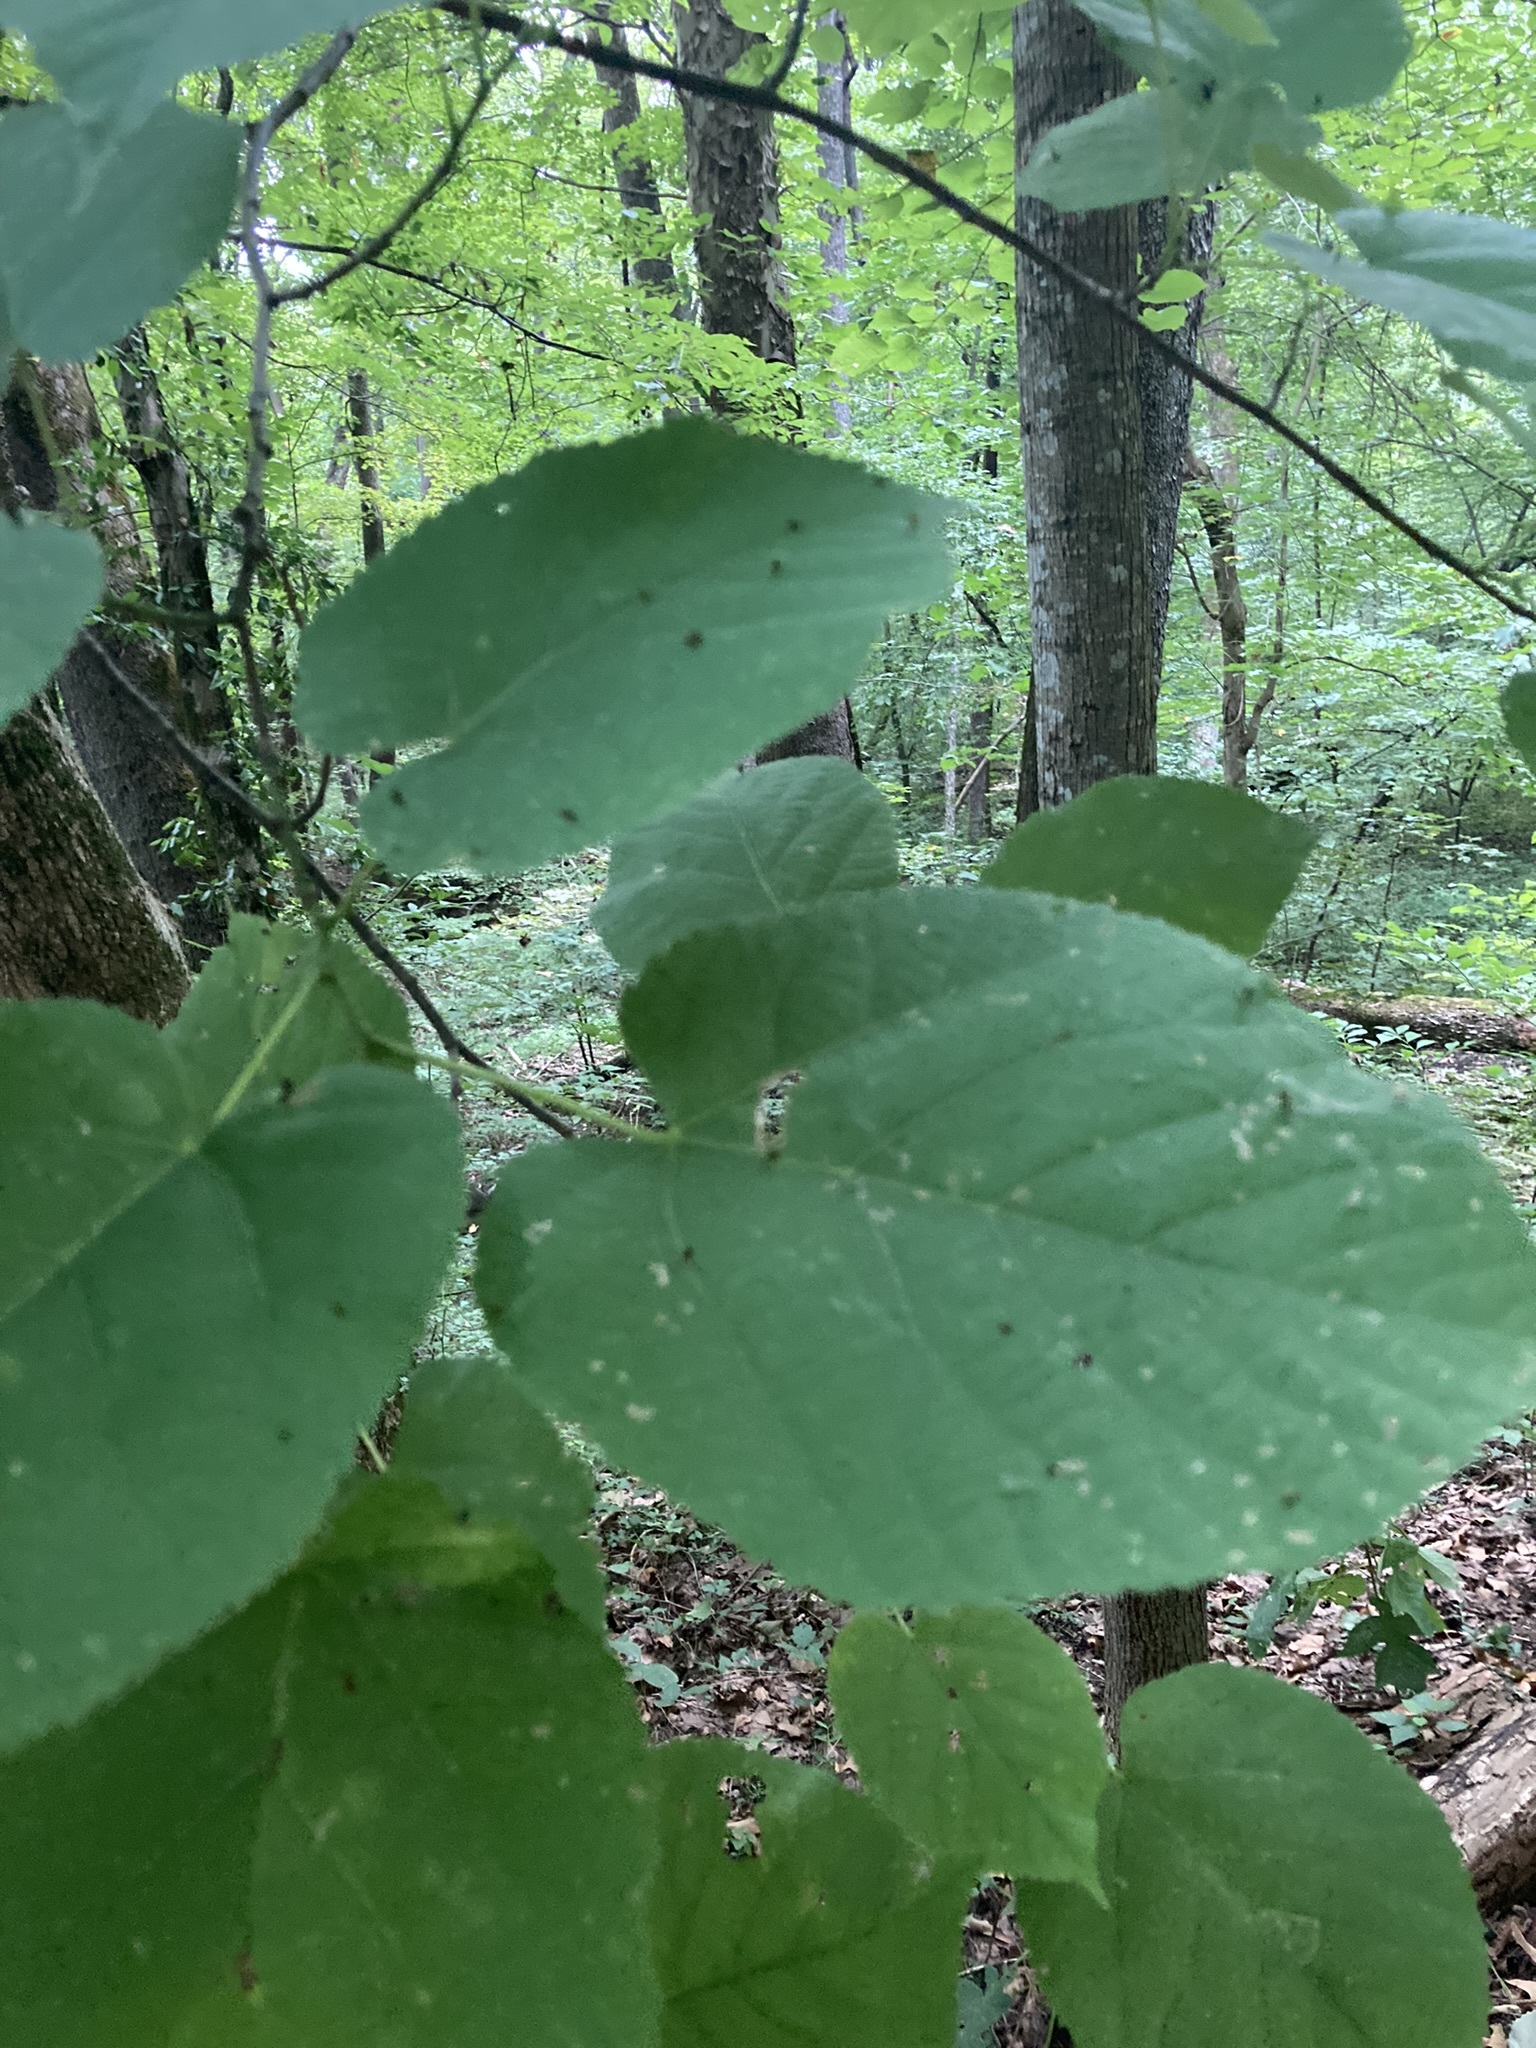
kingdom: Plantae
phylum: Tracheophyta
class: Magnoliopsida
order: Malvales
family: Malvaceae
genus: Tilia
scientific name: Tilia americana
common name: Basswood
